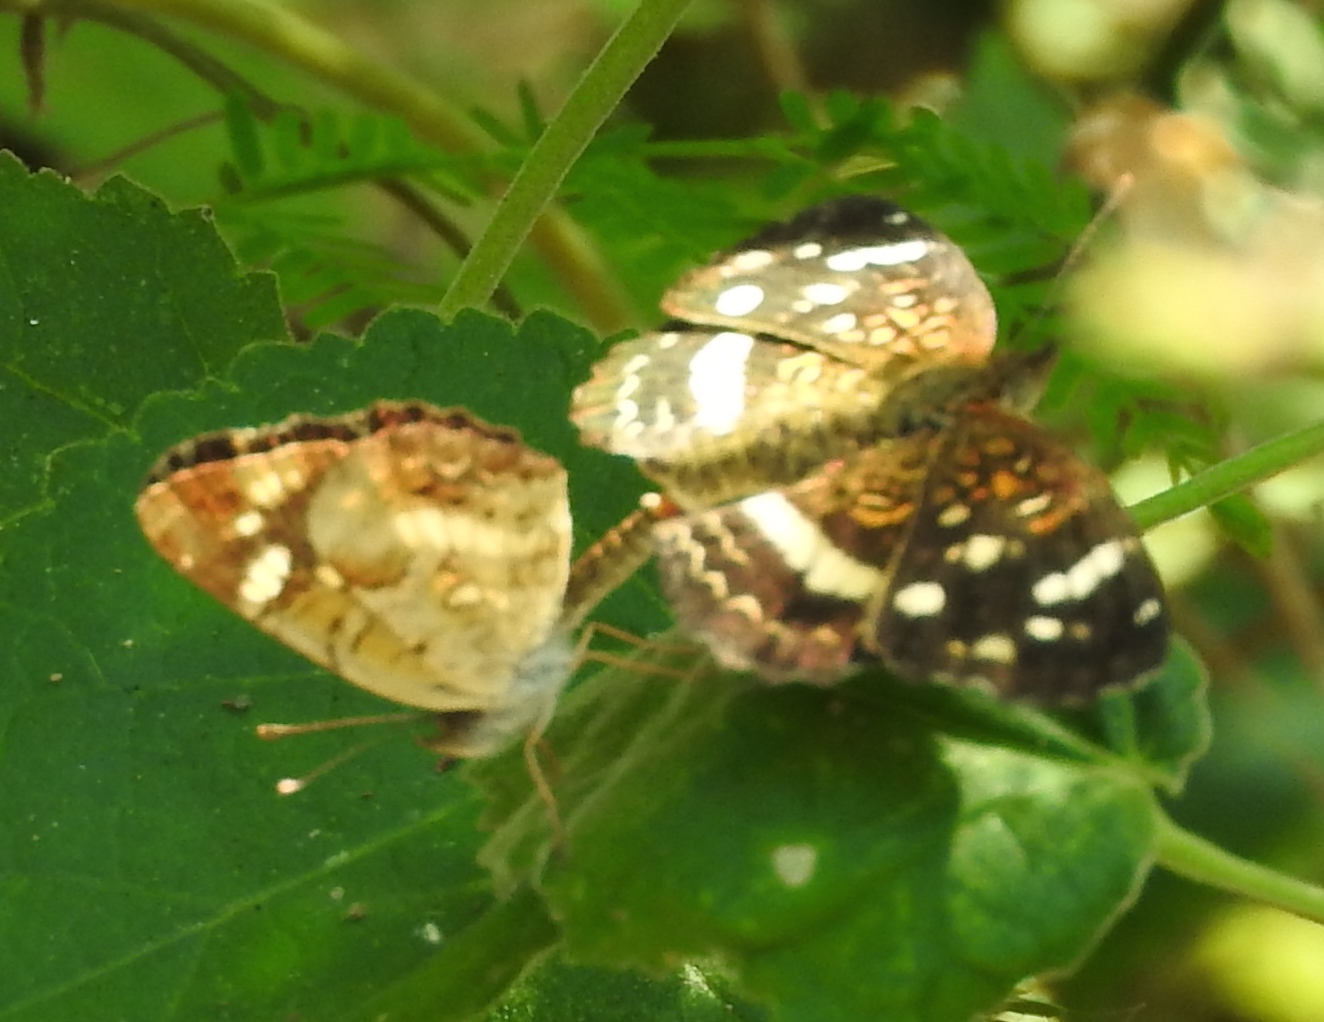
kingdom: Animalia
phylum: Arthropoda
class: Insecta
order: Lepidoptera
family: Nymphalidae
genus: Anthanassa
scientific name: Anthanassa tulcis
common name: Pale-banded crescent
